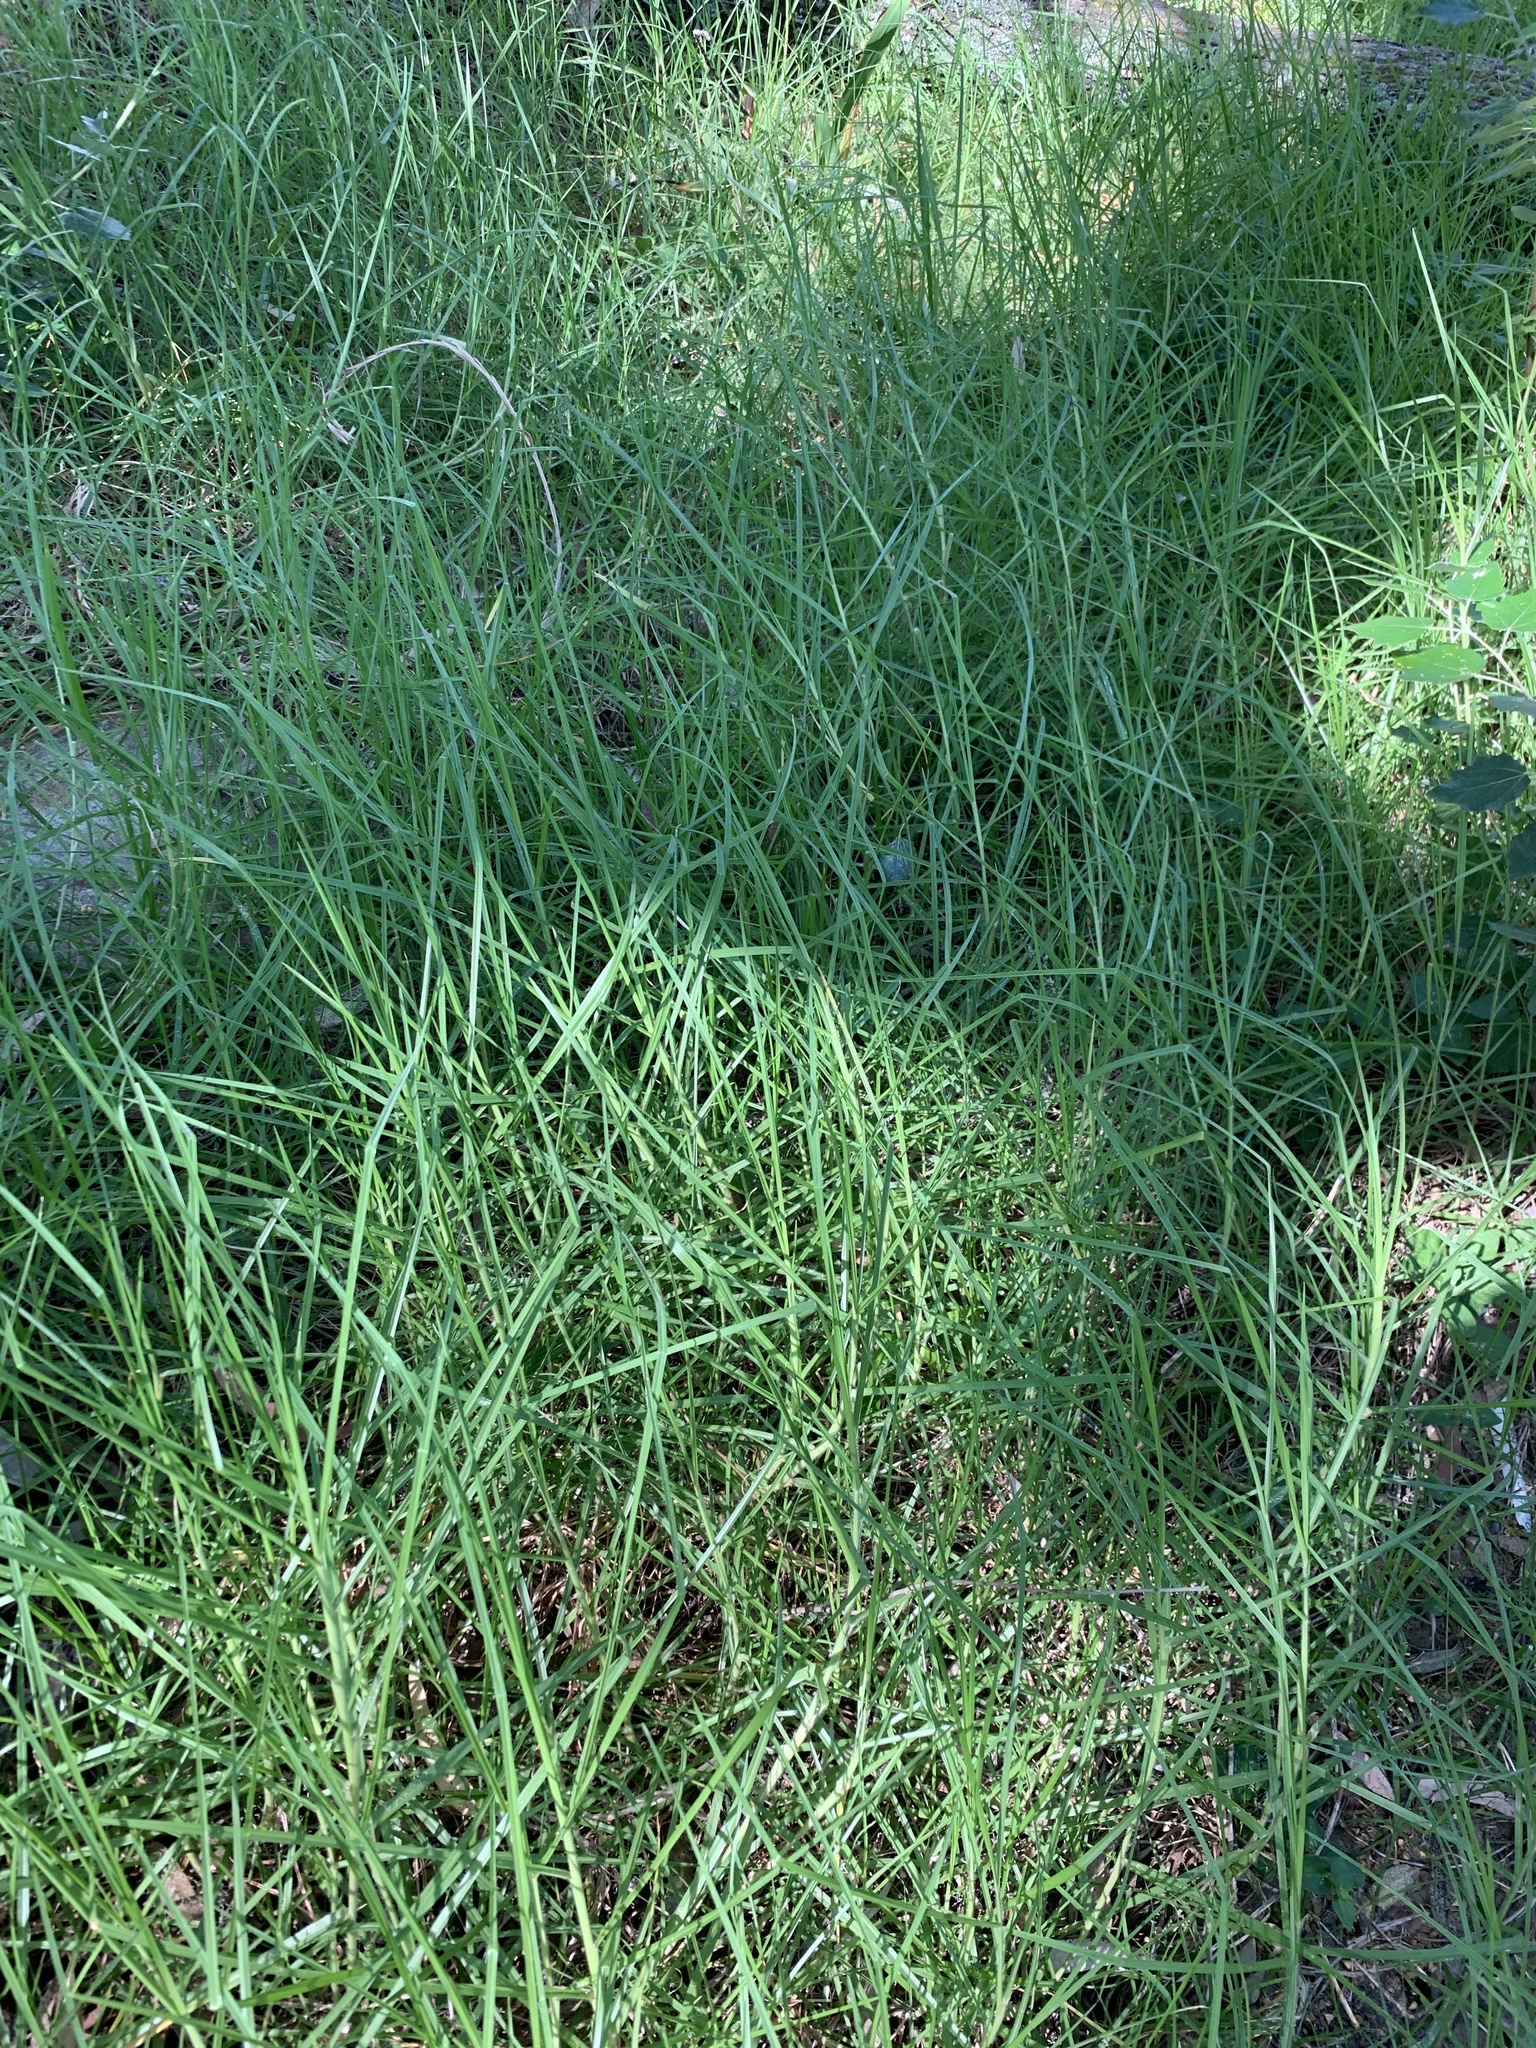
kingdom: Plantae
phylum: Tracheophyta
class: Liliopsida
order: Poales
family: Poaceae
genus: Cenchrus
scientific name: Cenchrus clandestinus
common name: Kikuyugrass
